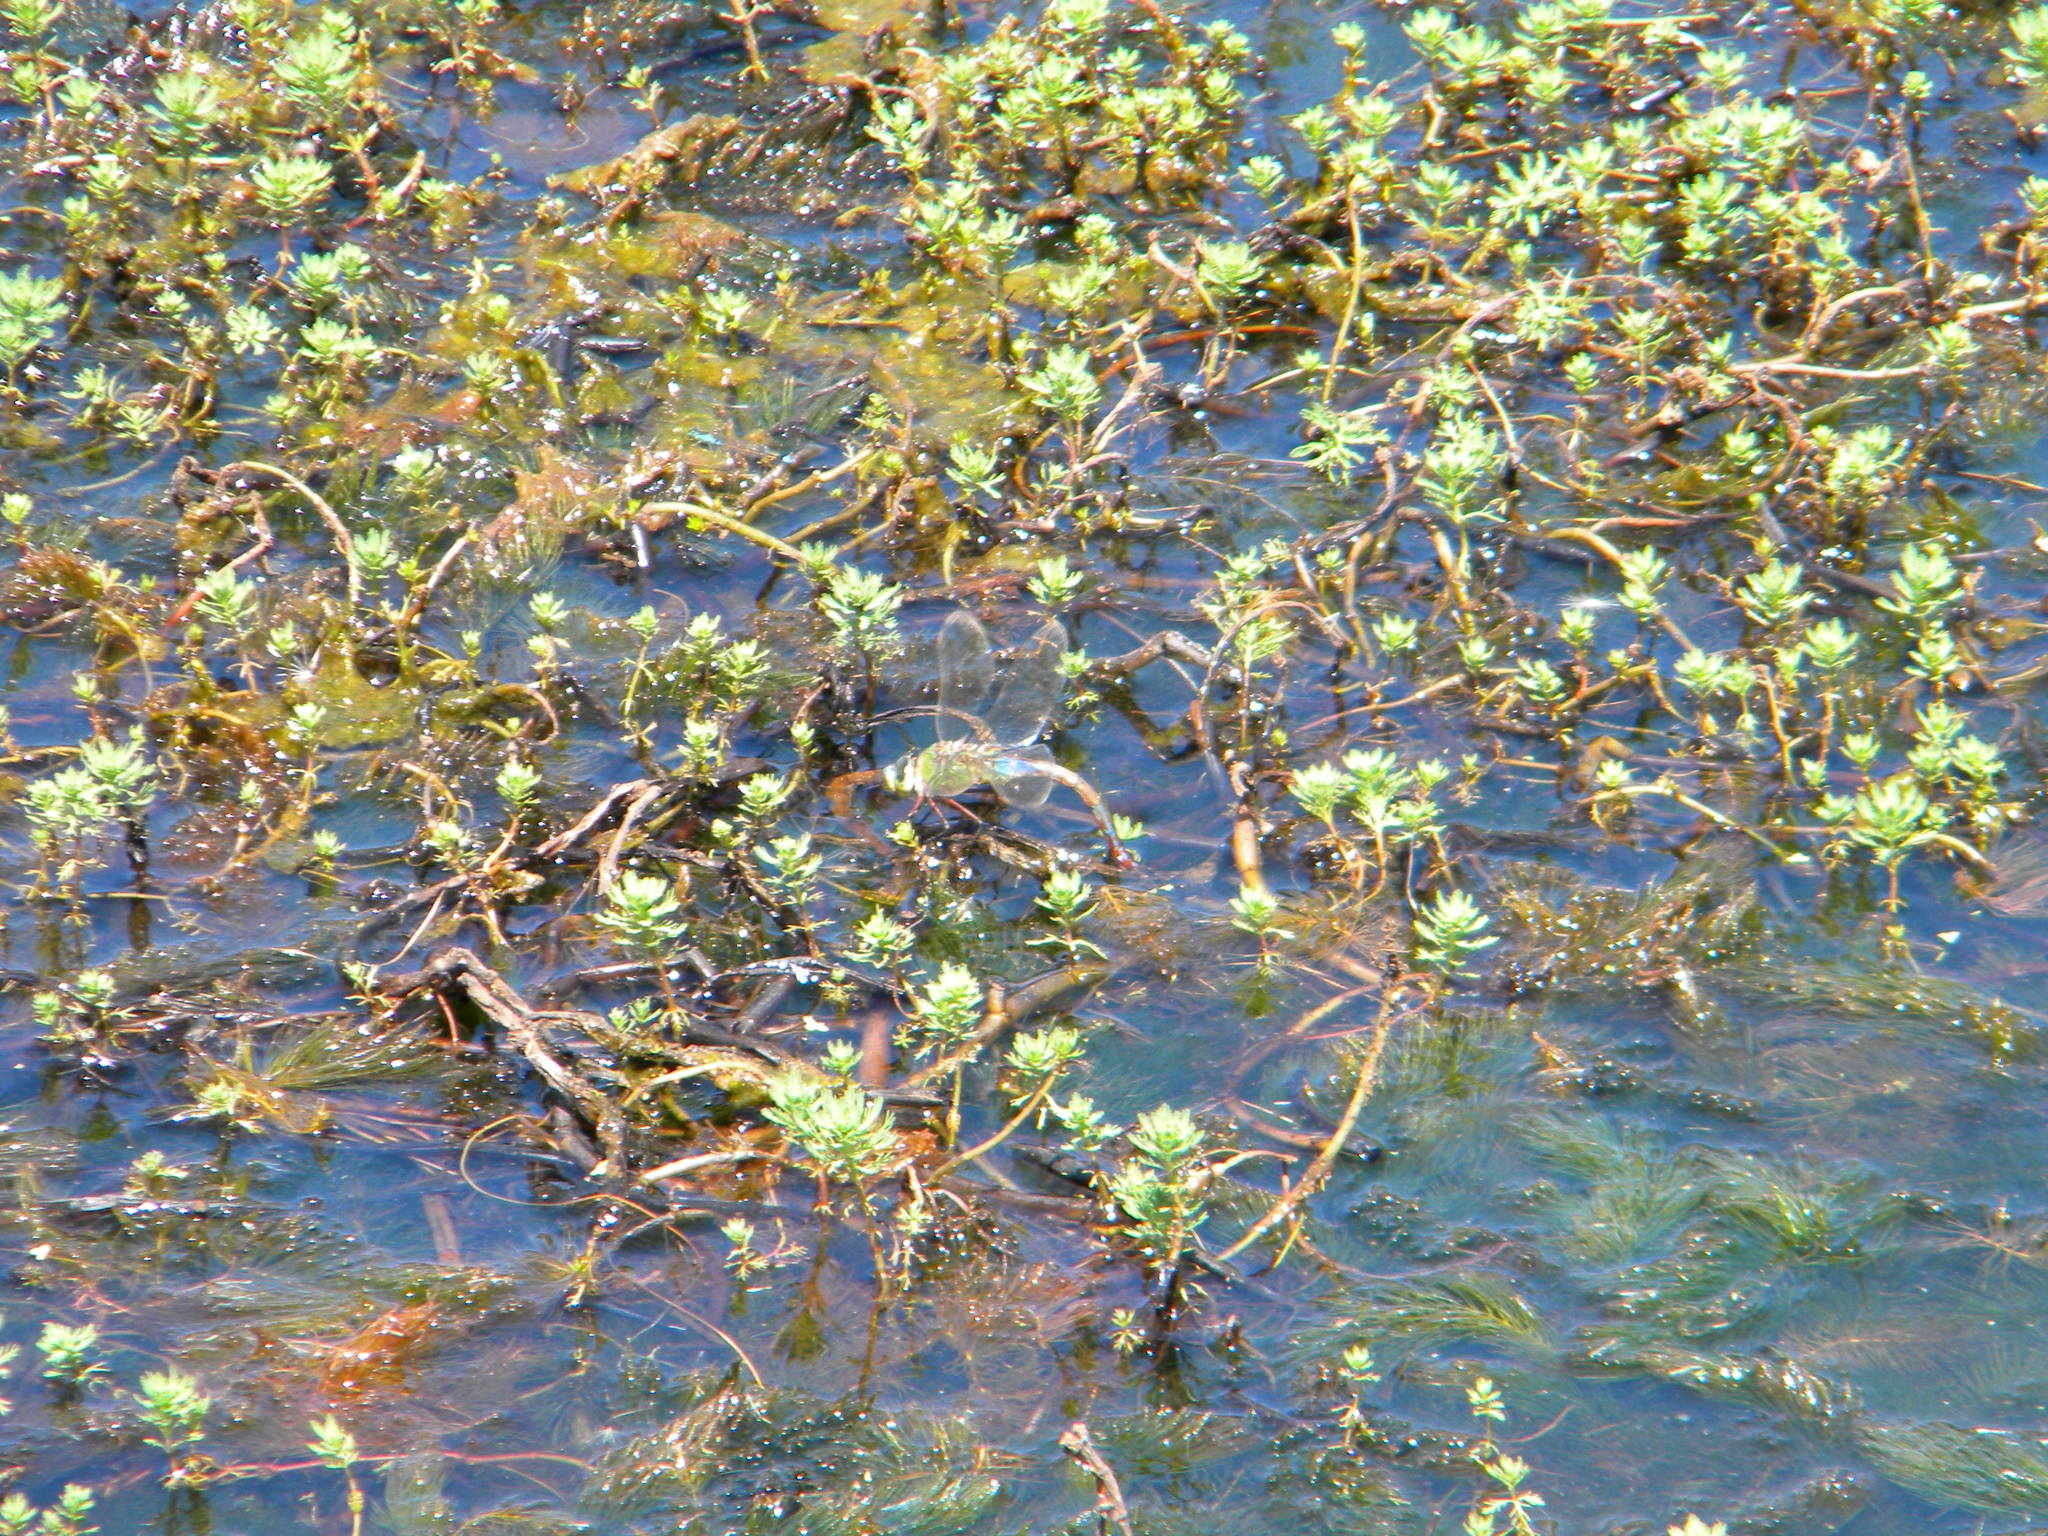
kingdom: Animalia
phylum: Arthropoda
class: Insecta
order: Odonata
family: Aeshnidae
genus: Anax
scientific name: Anax imperator
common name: Emperor dragonfly
